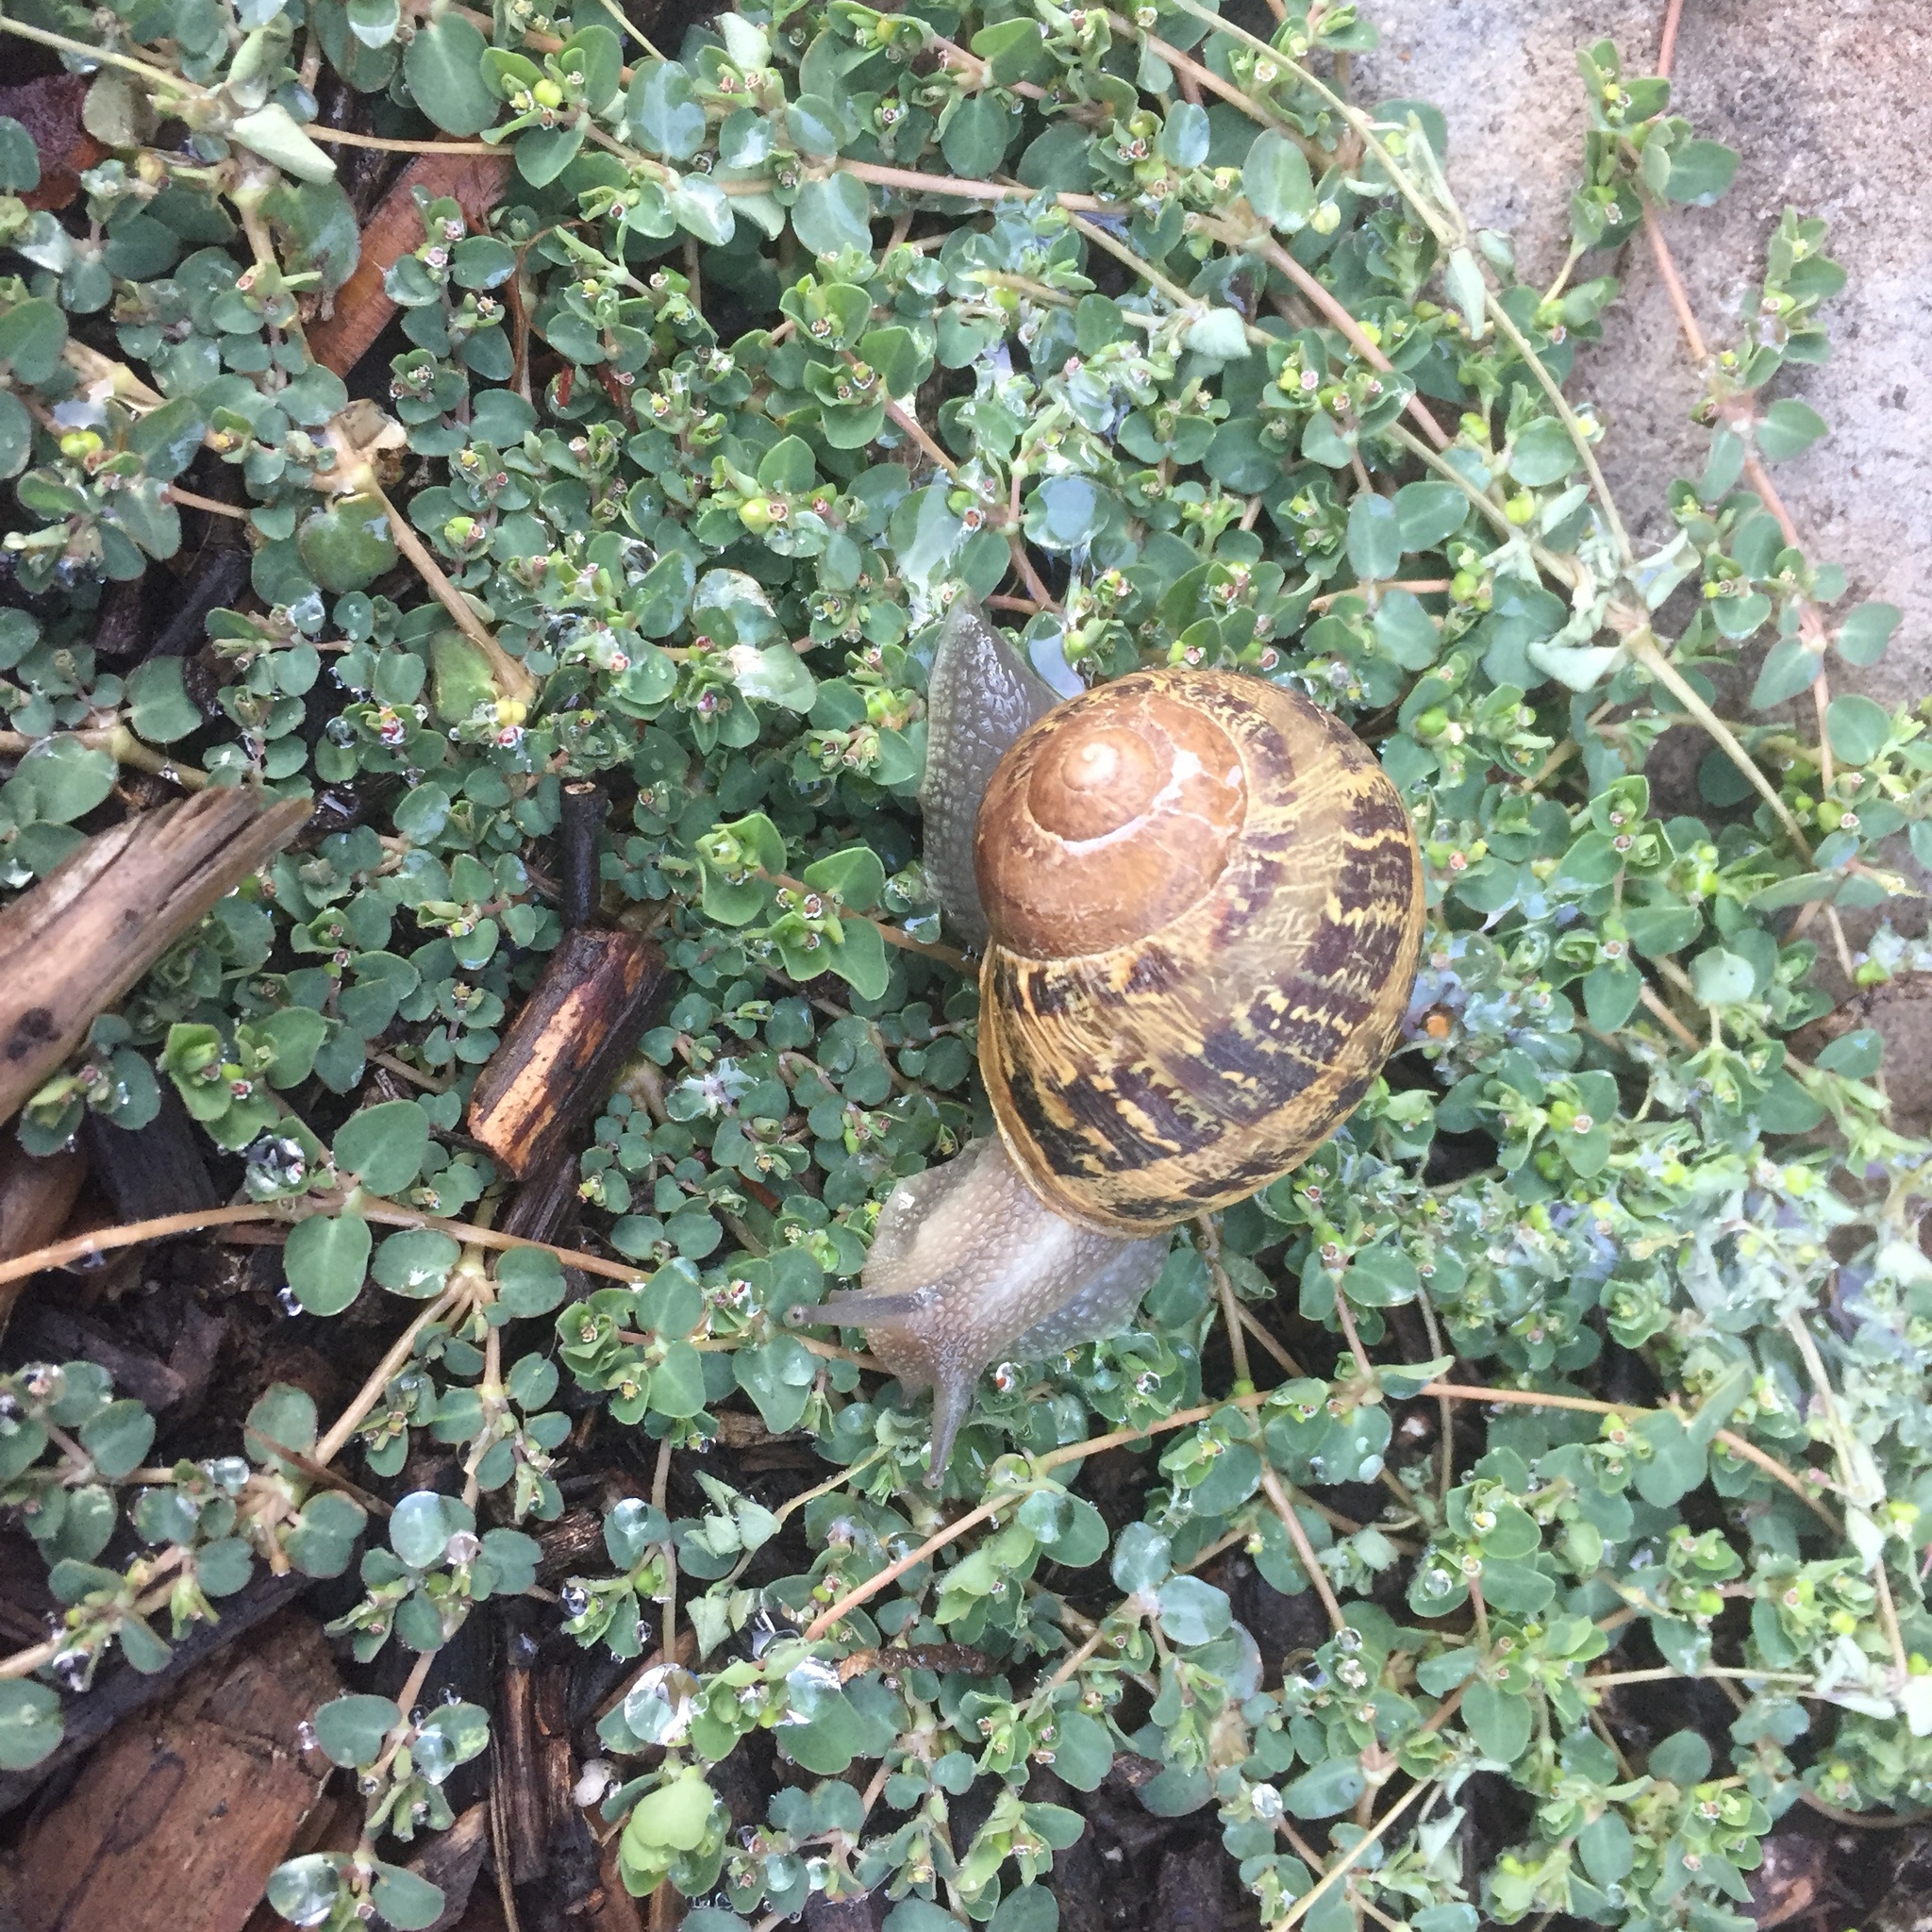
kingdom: Animalia
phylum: Mollusca
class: Gastropoda
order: Stylommatophora
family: Helicidae
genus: Cornu
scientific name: Cornu aspersum
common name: Brown garden snail
